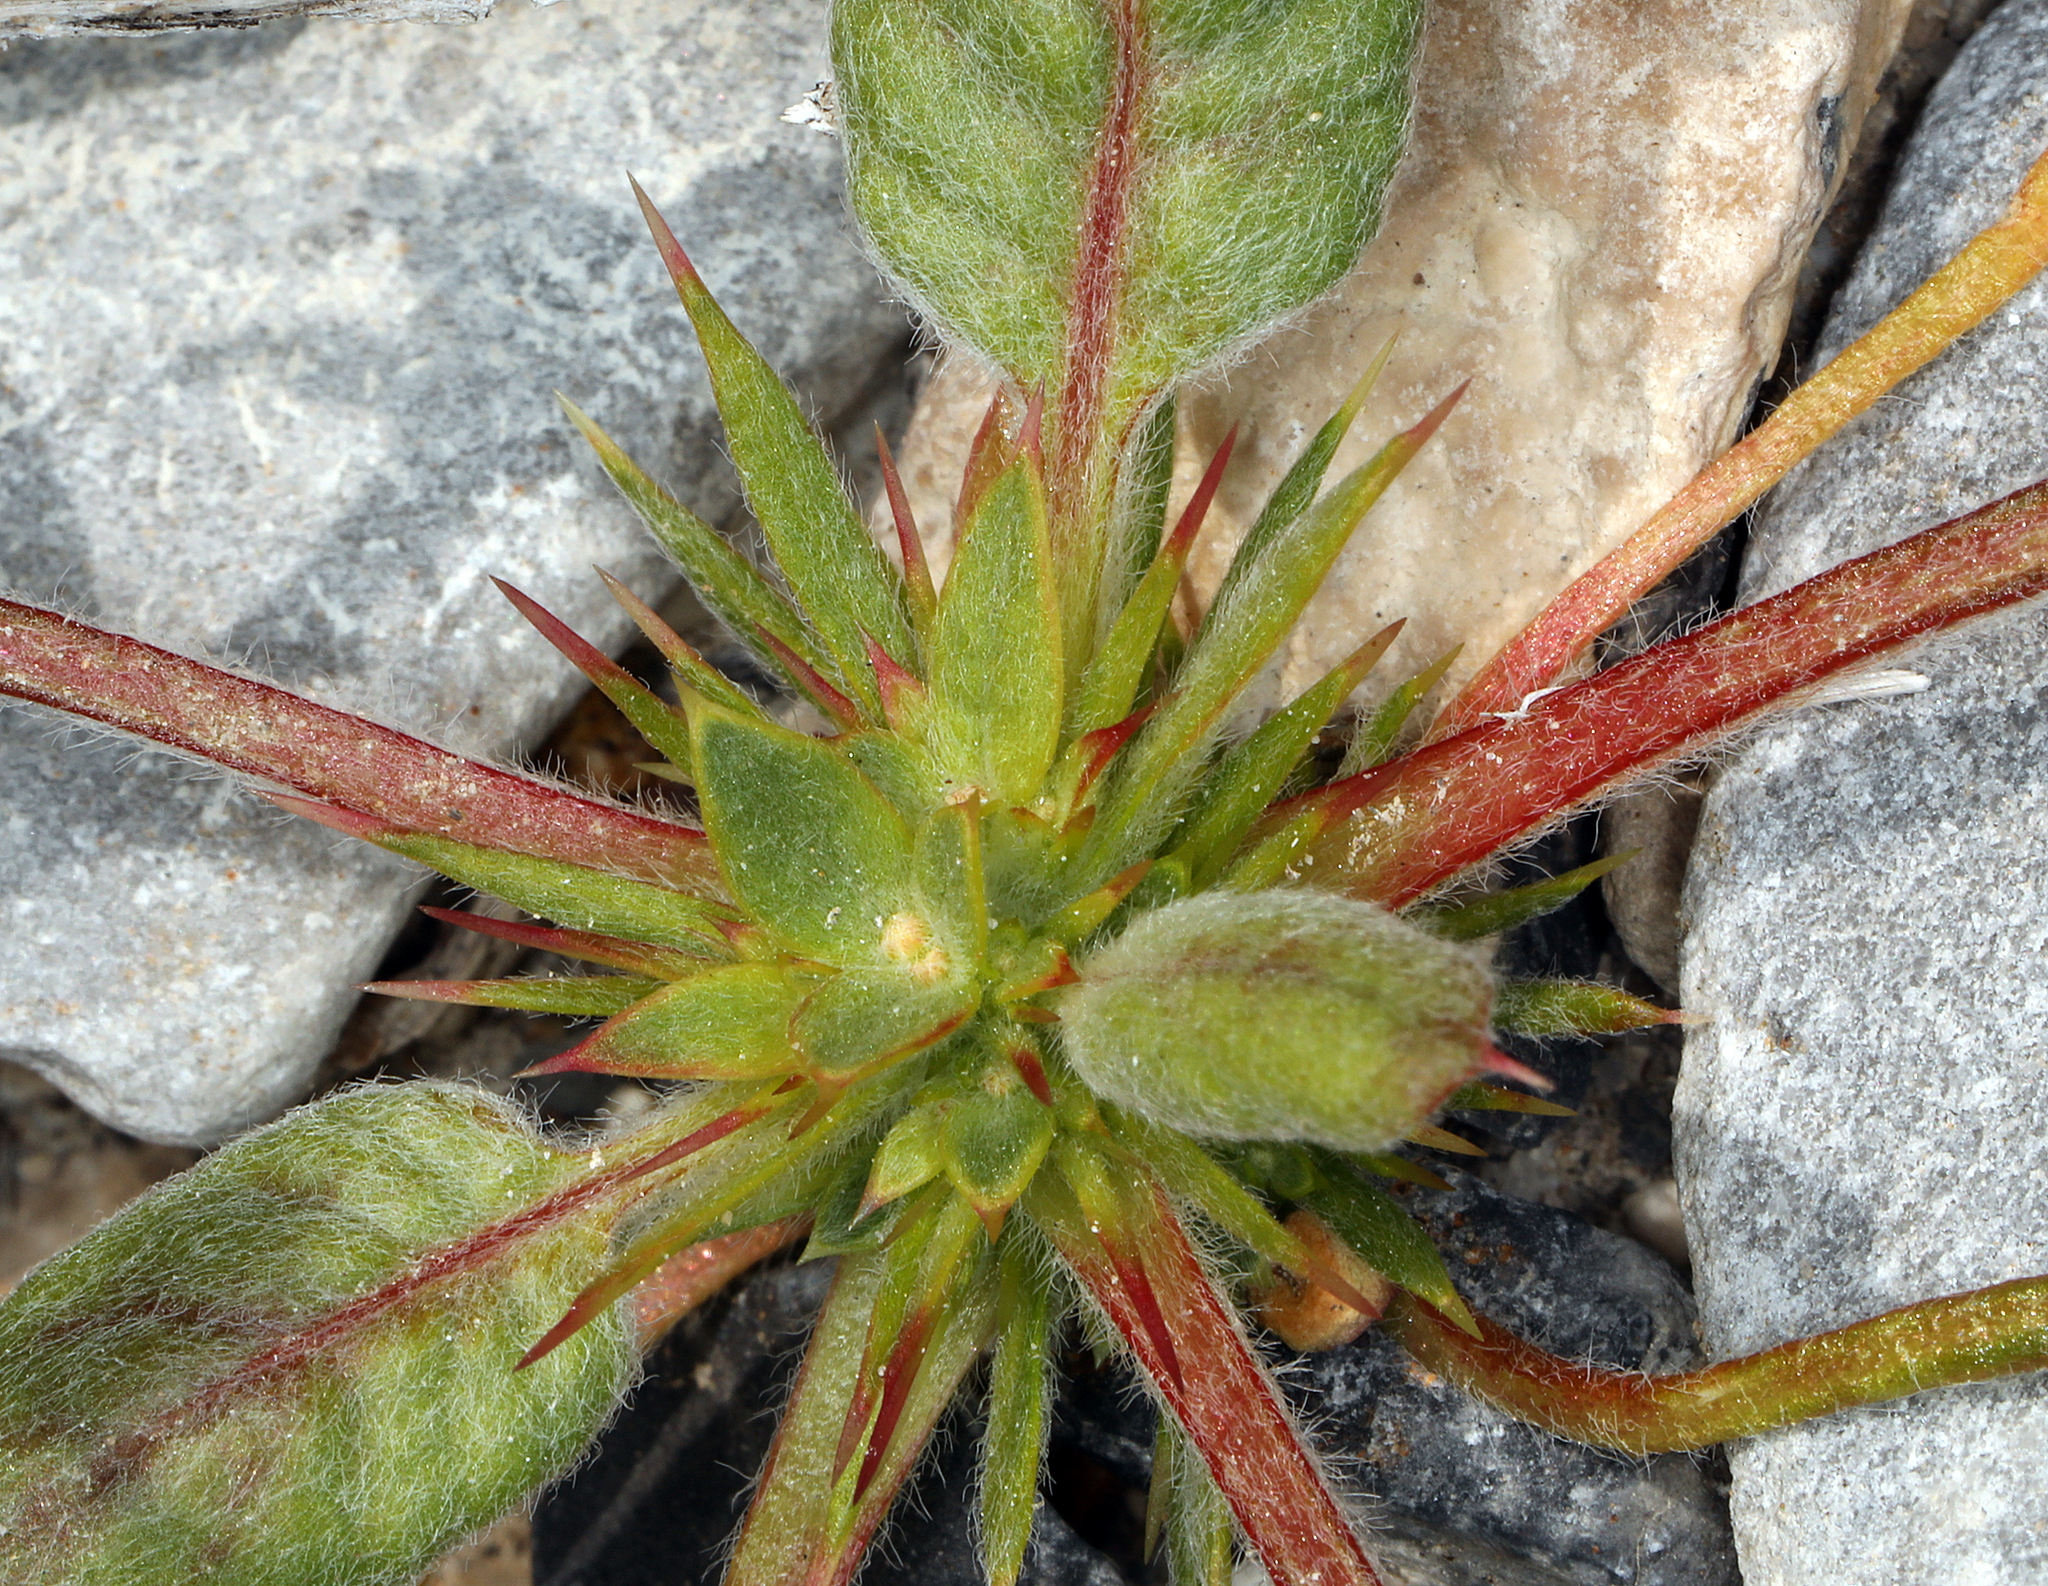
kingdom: Plantae
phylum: Tracheophyta
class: Magnoliopsida
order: Caryophyllales
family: Polygonaceae
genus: Chorizanthe
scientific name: Chorizanthe rigida
